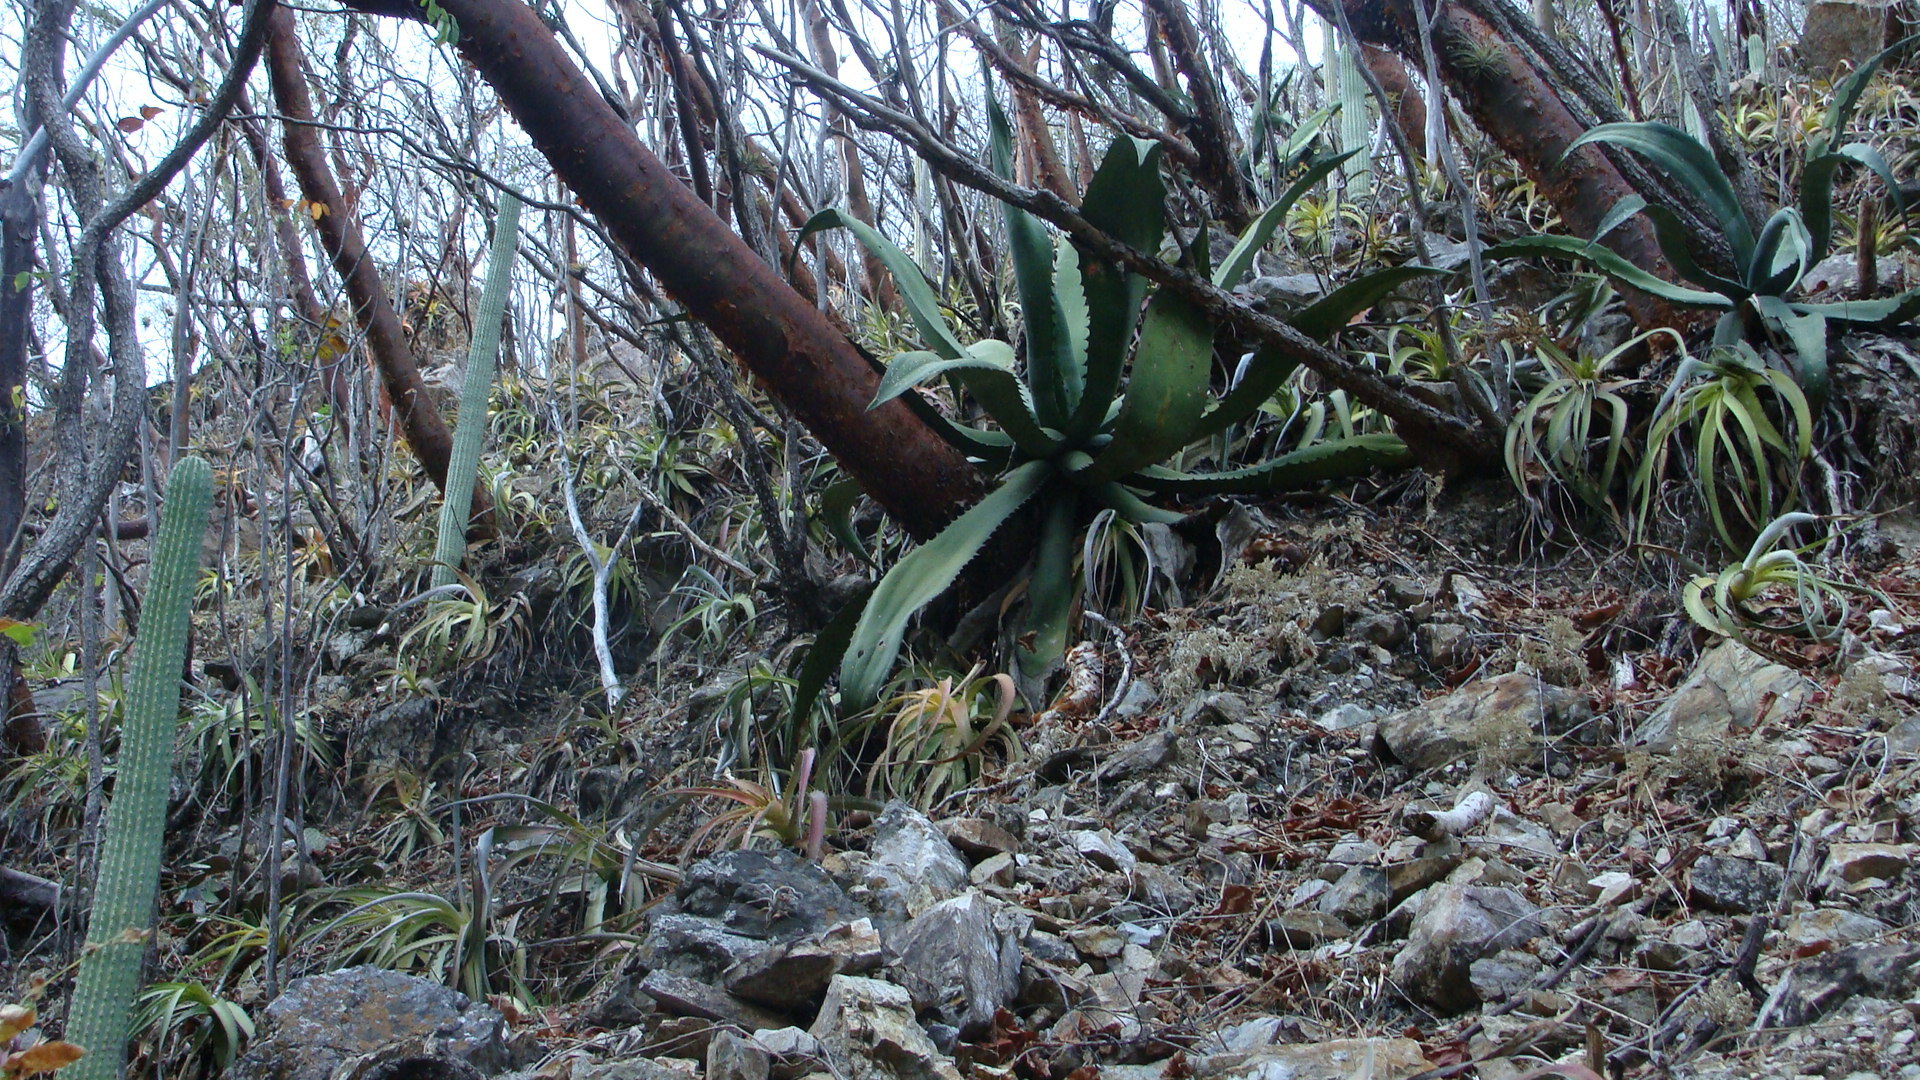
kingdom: Plantae
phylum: Tracheophyta
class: Liliopsida
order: Asparagales
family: Asparagaceae
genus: Agave
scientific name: Agave marmorata
